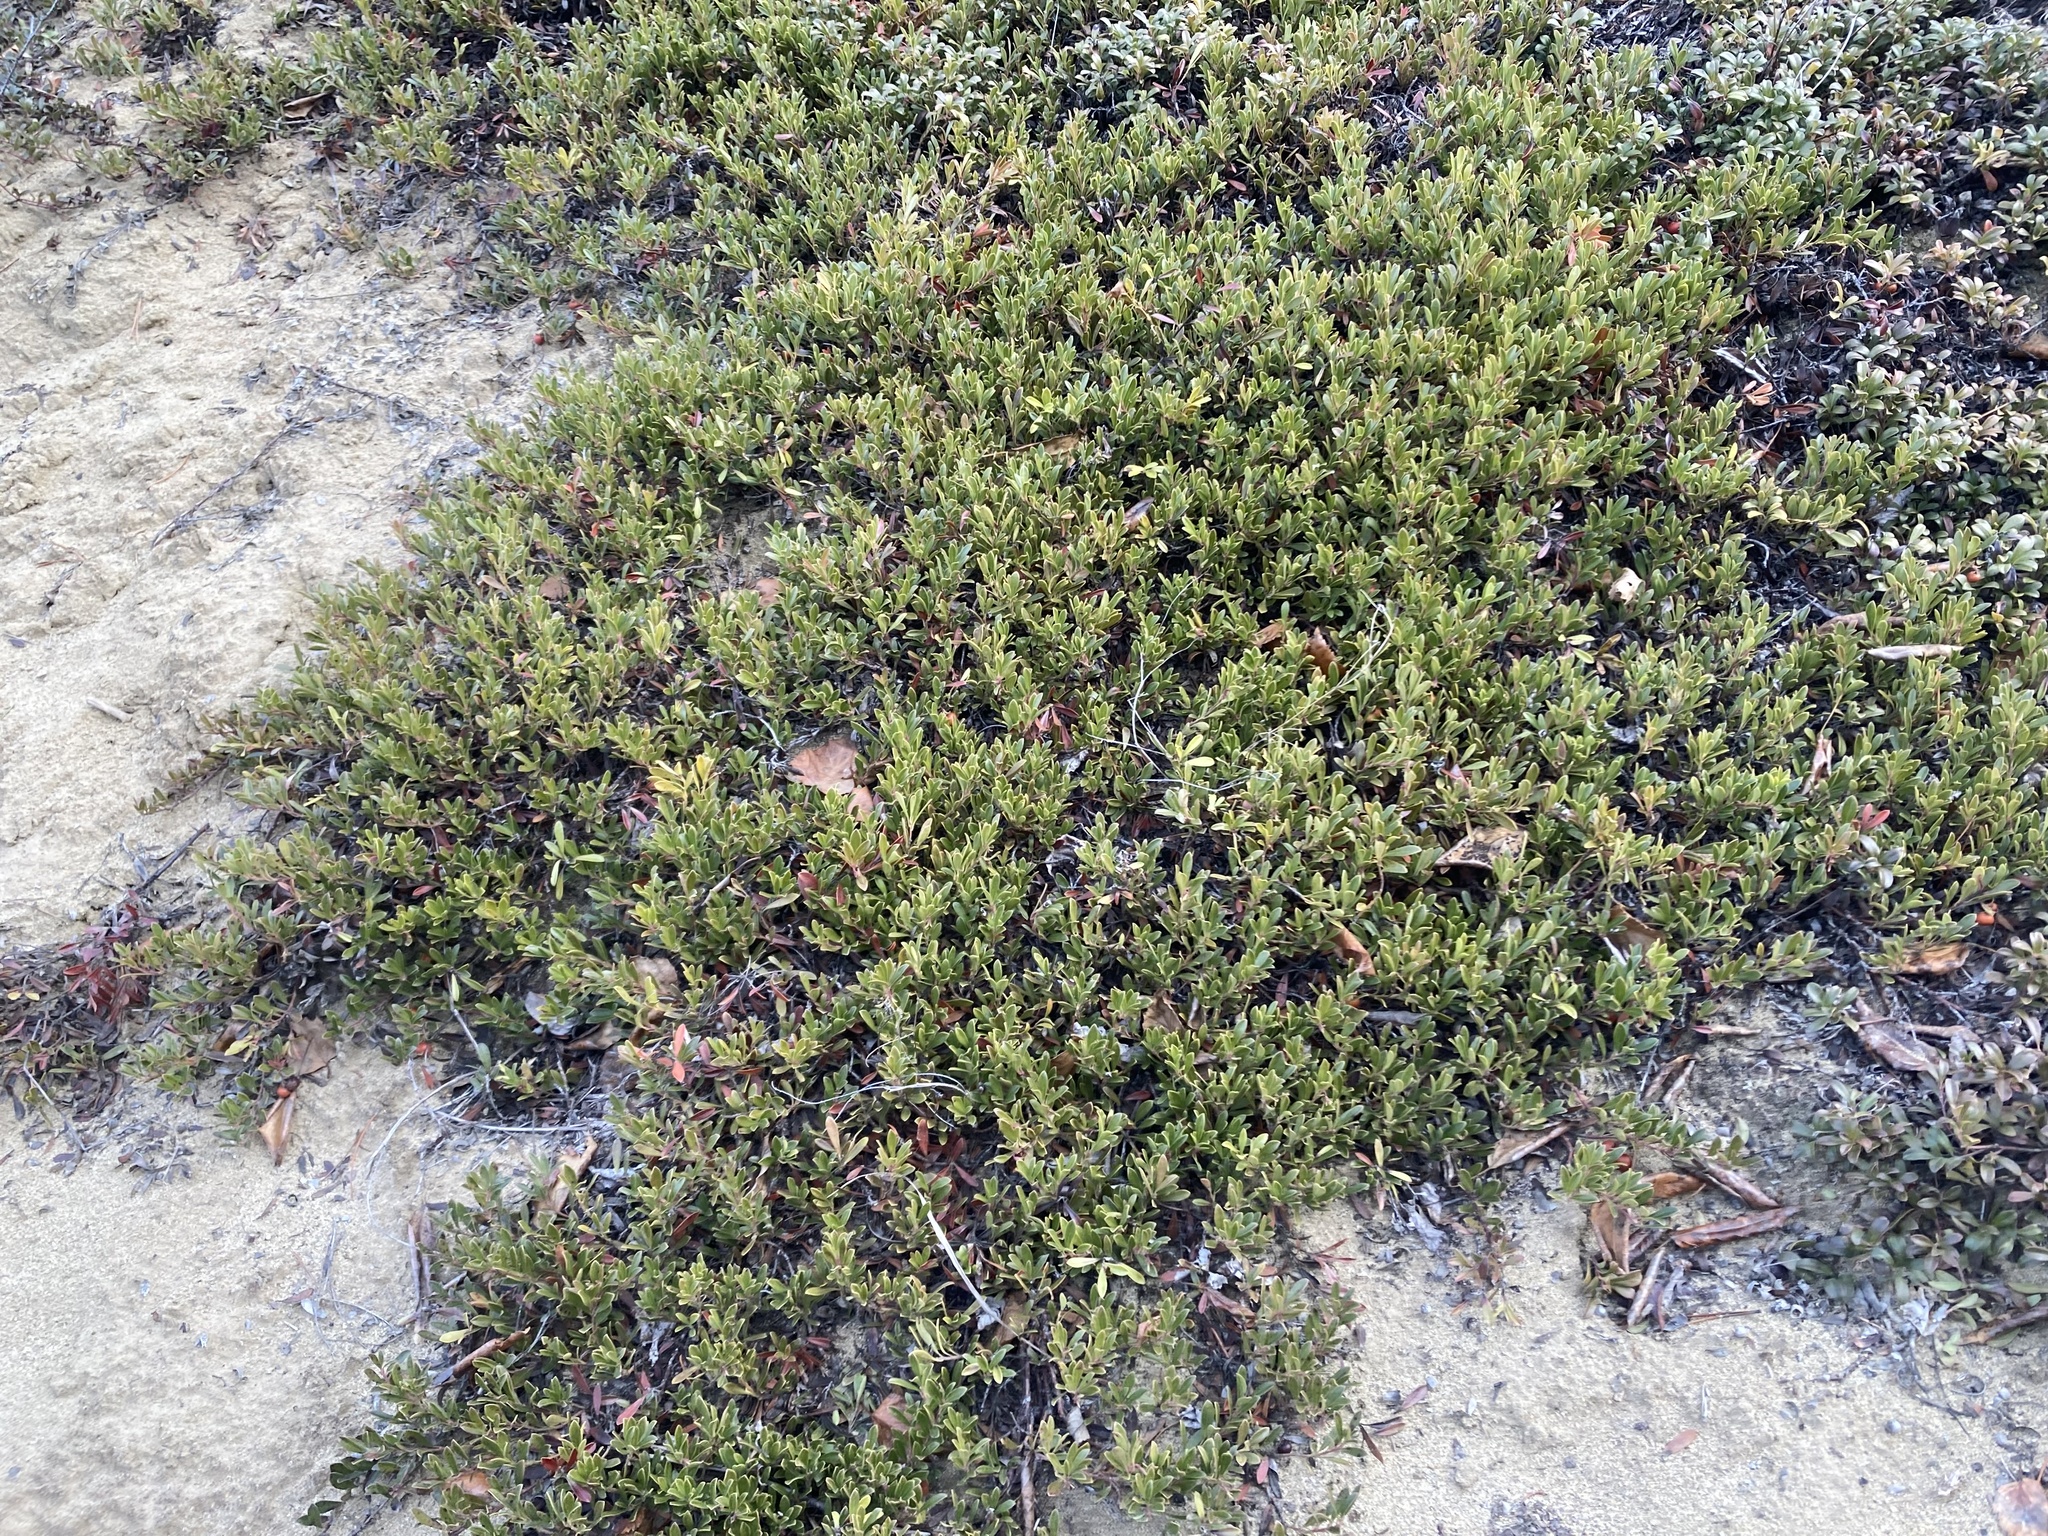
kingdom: Plantae
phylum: Tracheophyta
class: Magnoliopsida
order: Ericales
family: Ericaceae
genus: Arctostaphylos
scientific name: Arctostaphylos uva-ursi
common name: Bearberry
